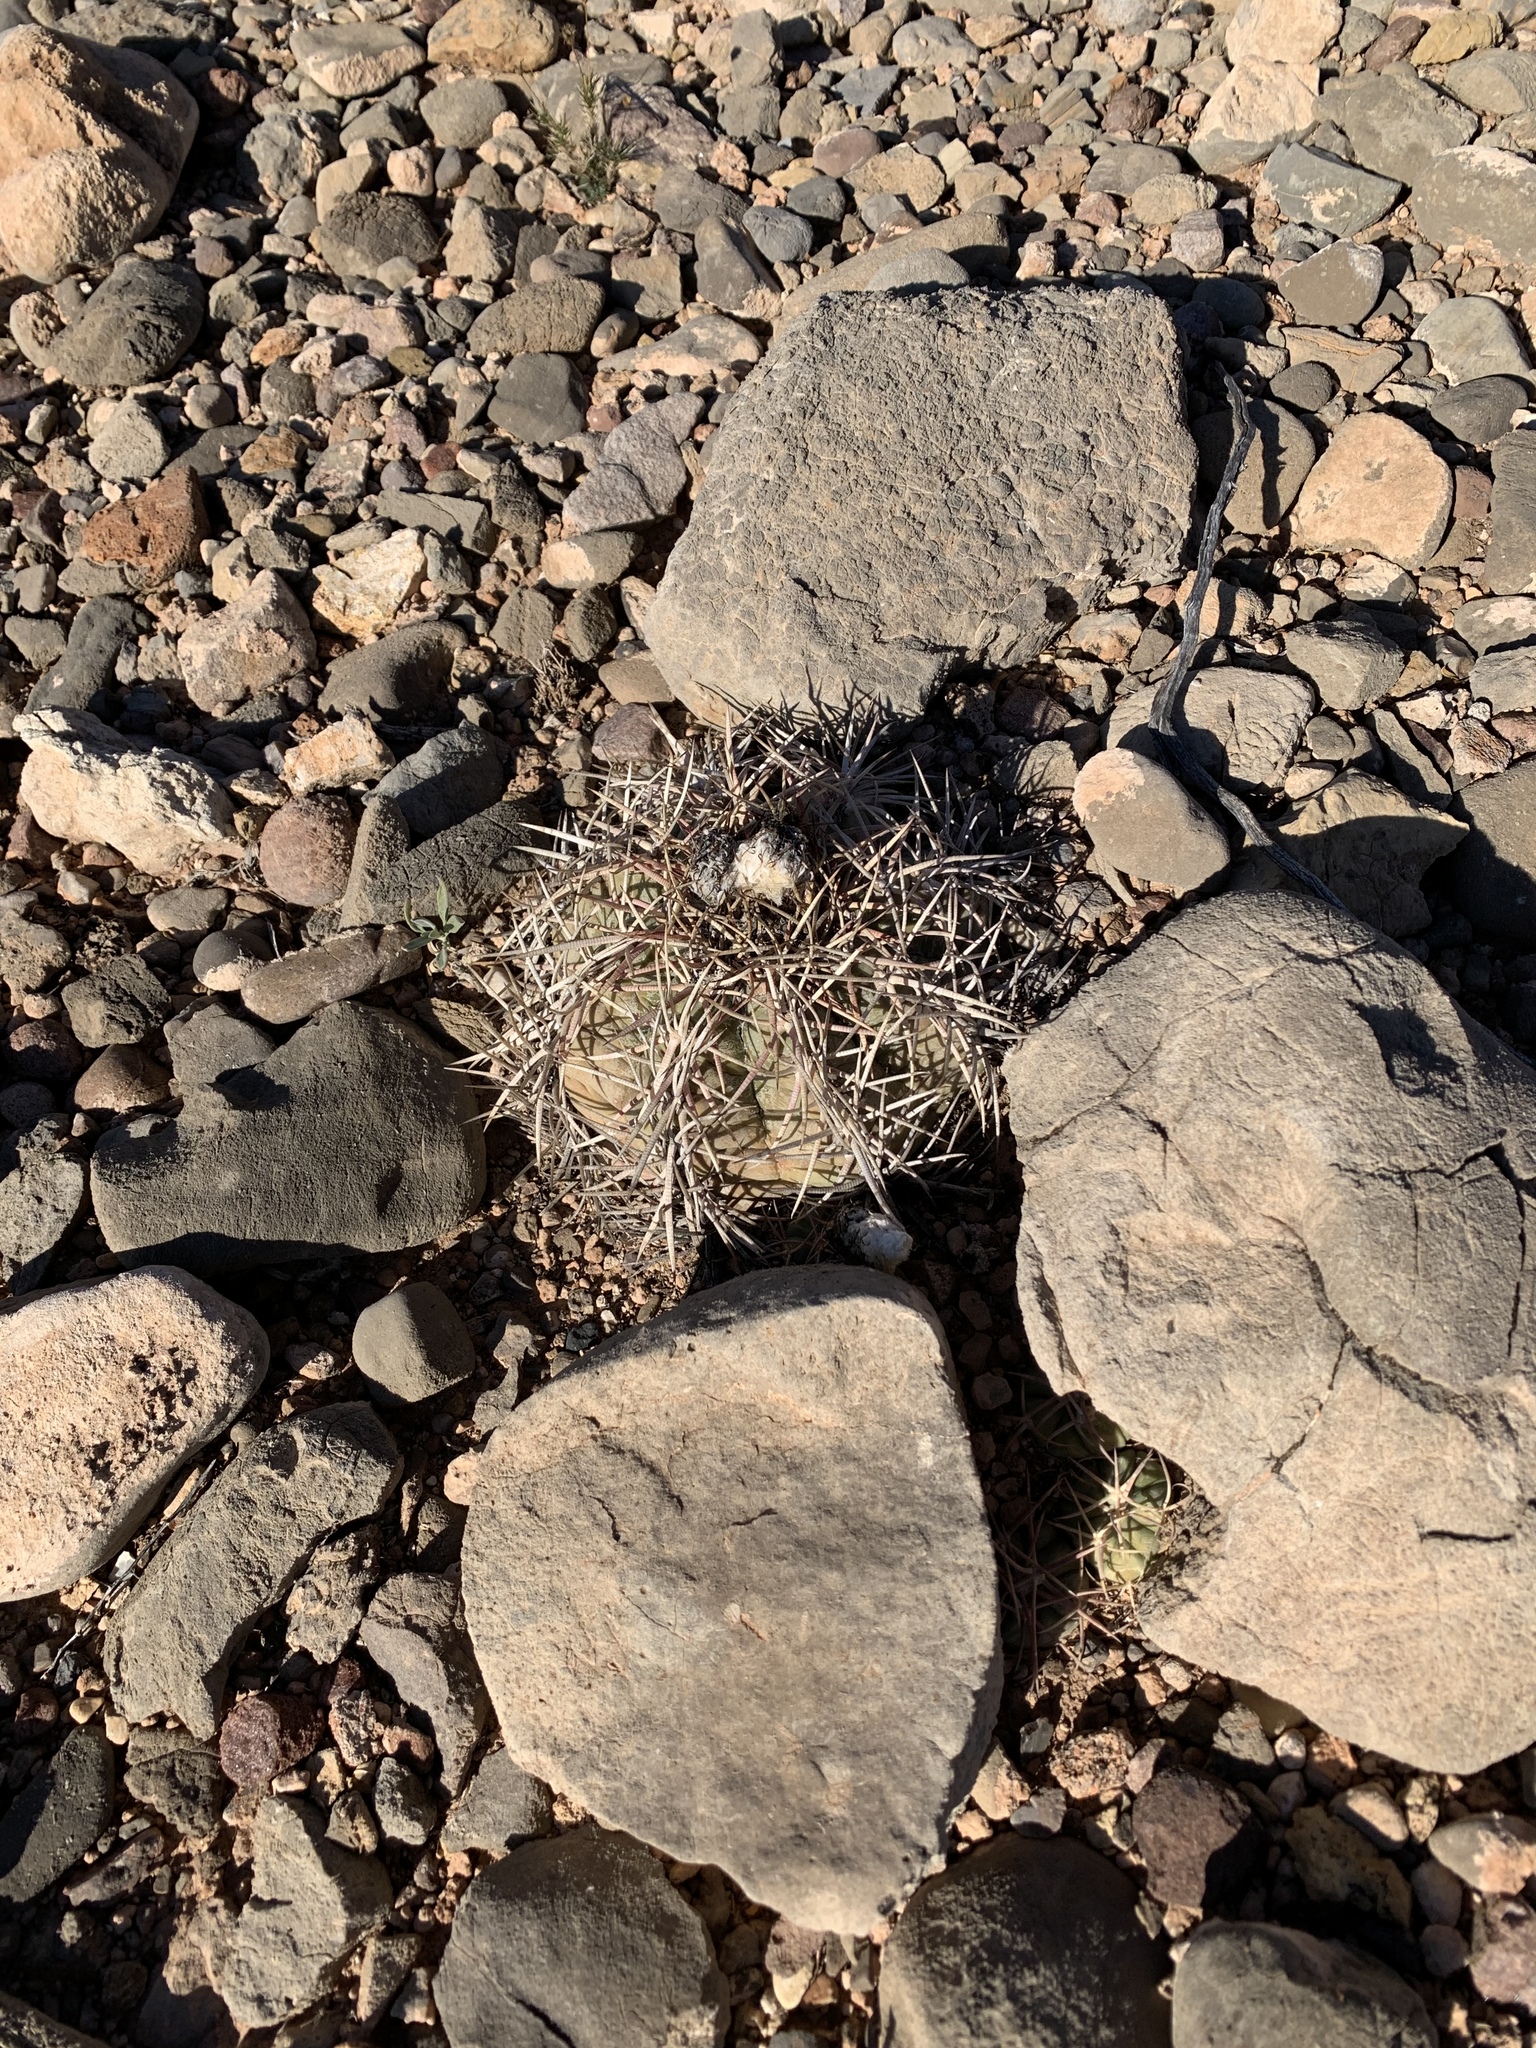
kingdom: Plantae
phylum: Tracheophyta
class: Magnoliopsida
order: Caryophyllales
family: Cactaceae
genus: Echinocactus
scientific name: Echinocactus horizonthalonius
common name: Devilshead
